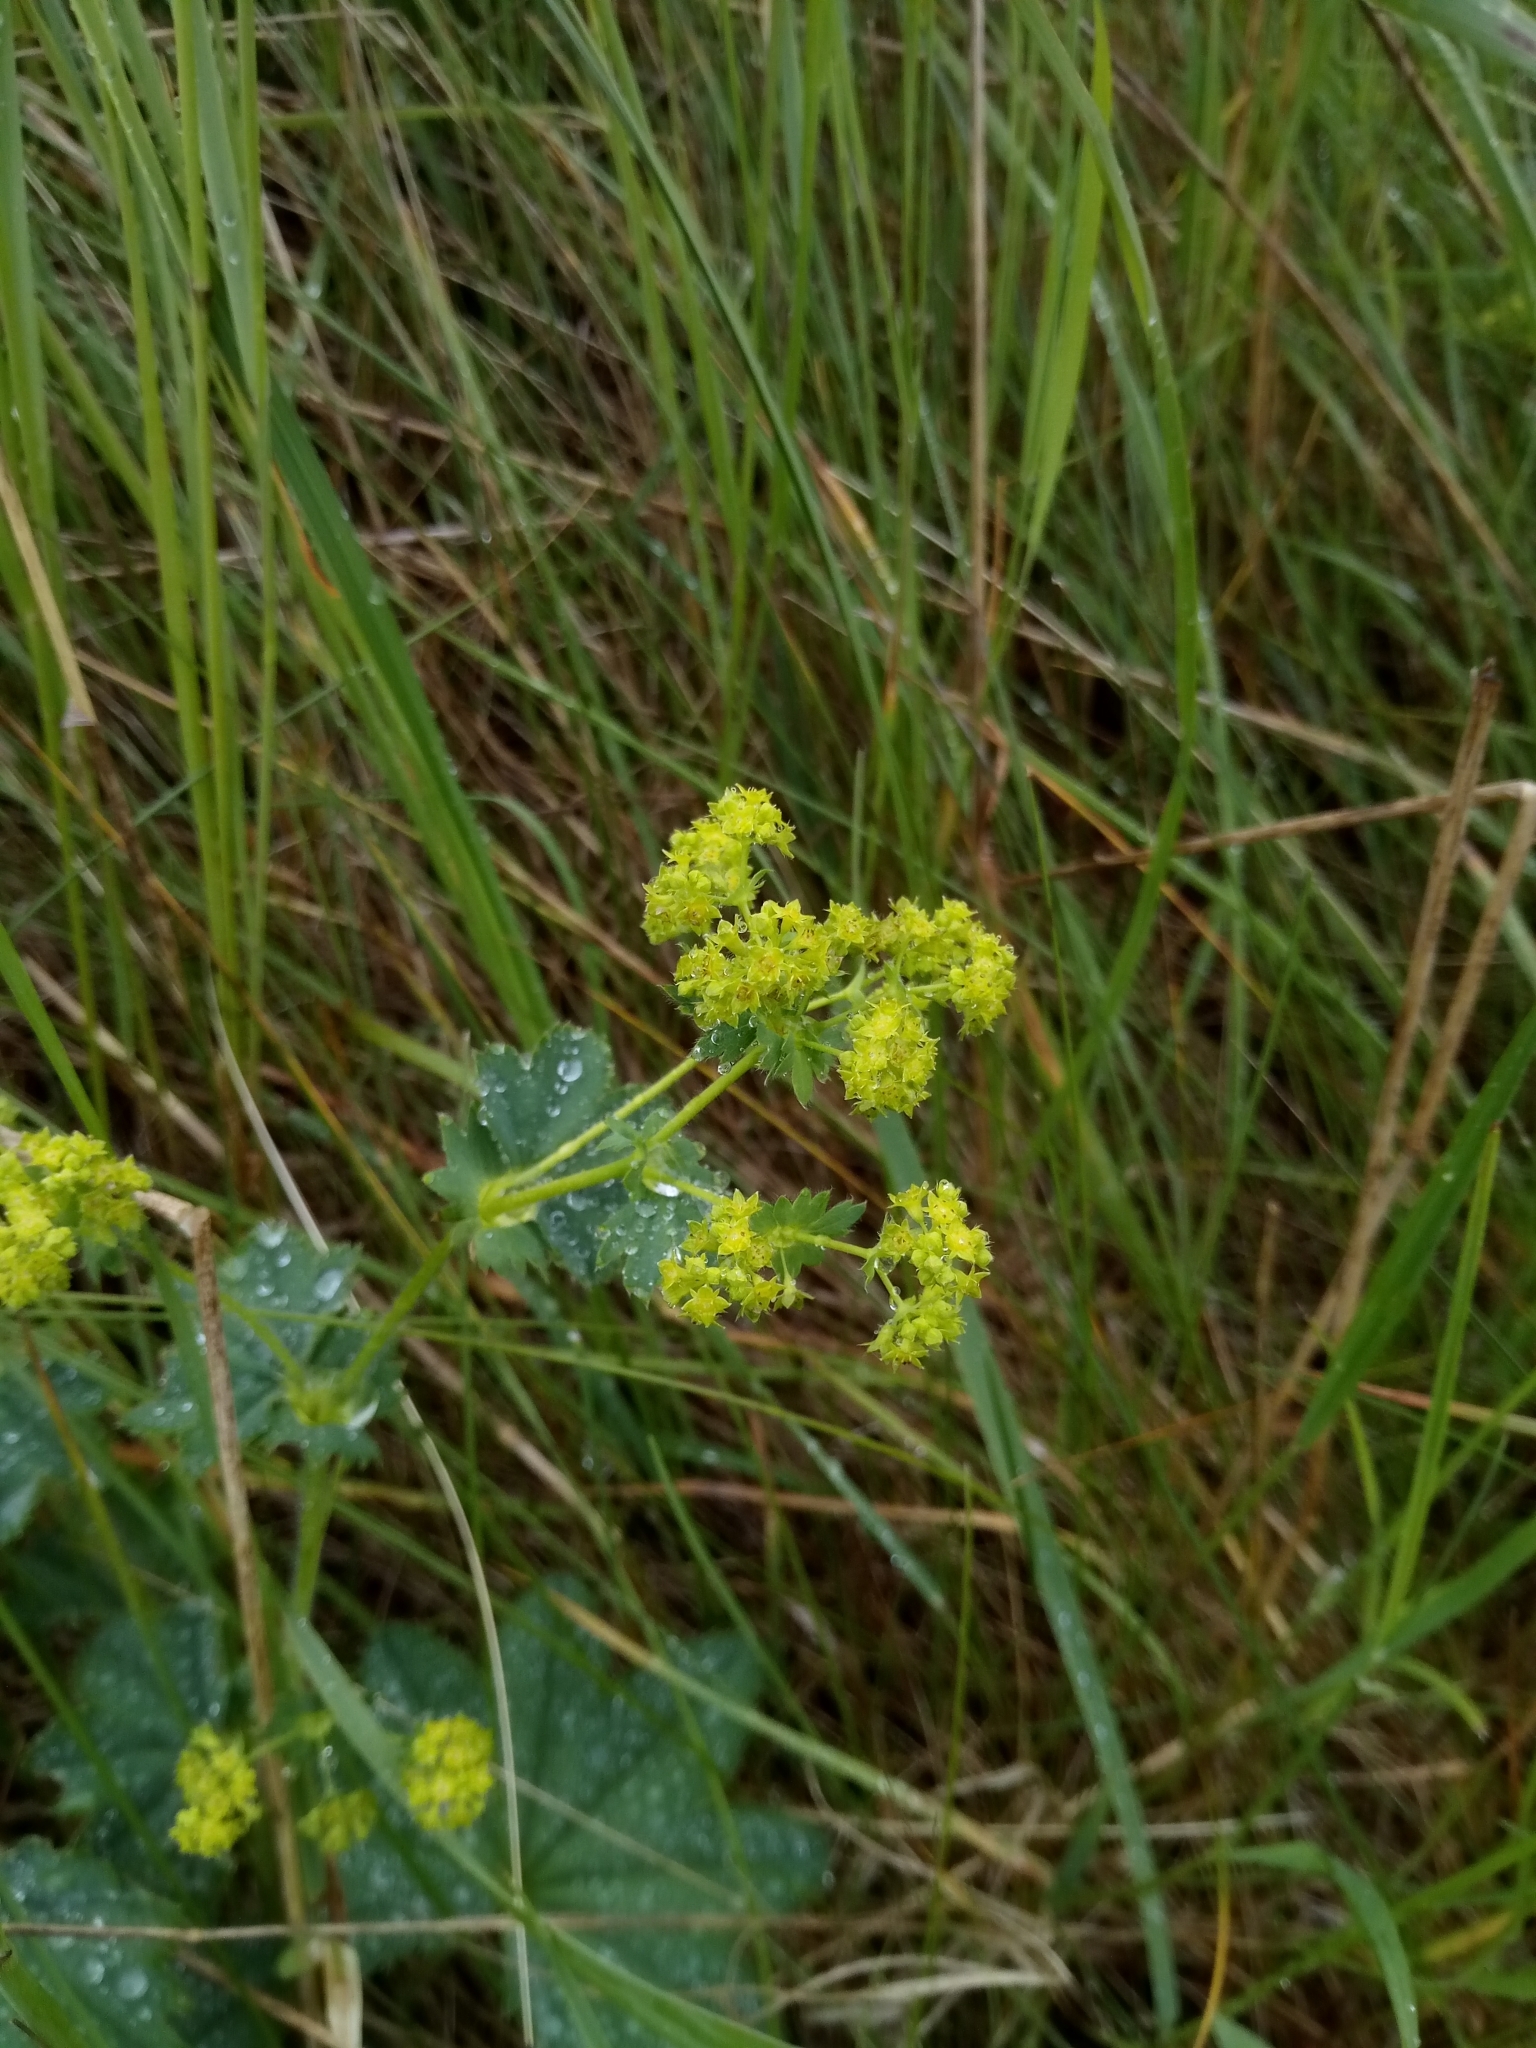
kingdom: Plantae
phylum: Tracheophyta
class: Magnoliopsida
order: Rosales
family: Rosaceae
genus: Alchemilla
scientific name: Alchemilla monticola
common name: Hairy lady's mantle
